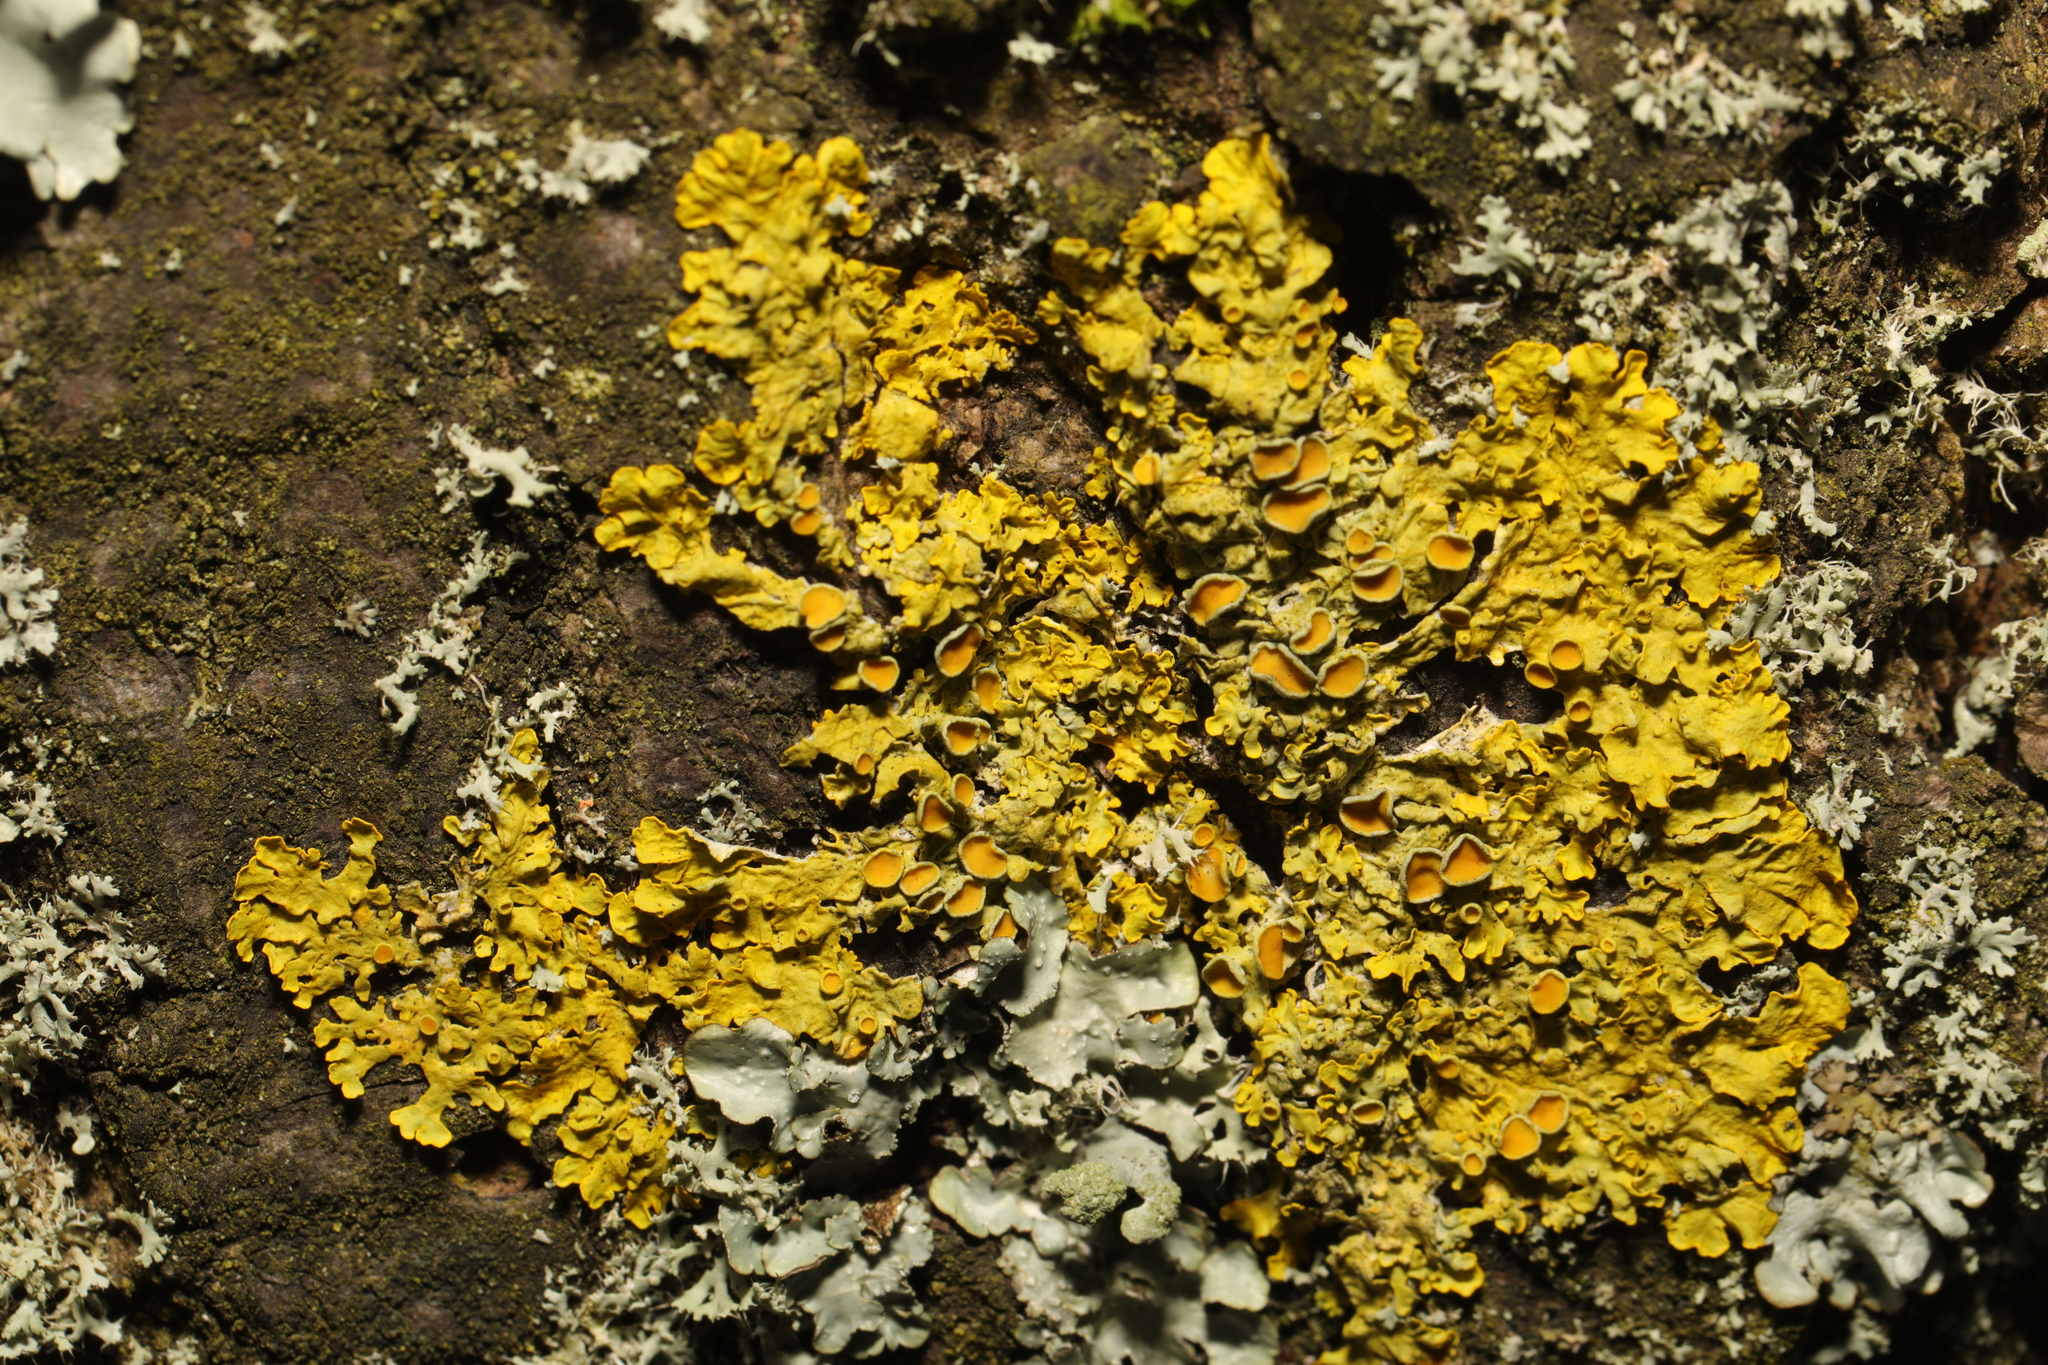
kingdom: Fungi
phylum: Ascomycota
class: Lecanoromycetes
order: Teloschistales
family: Teloschistaceae
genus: Xanthoria
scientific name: Xanthoria parietina
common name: Common orange lichen
